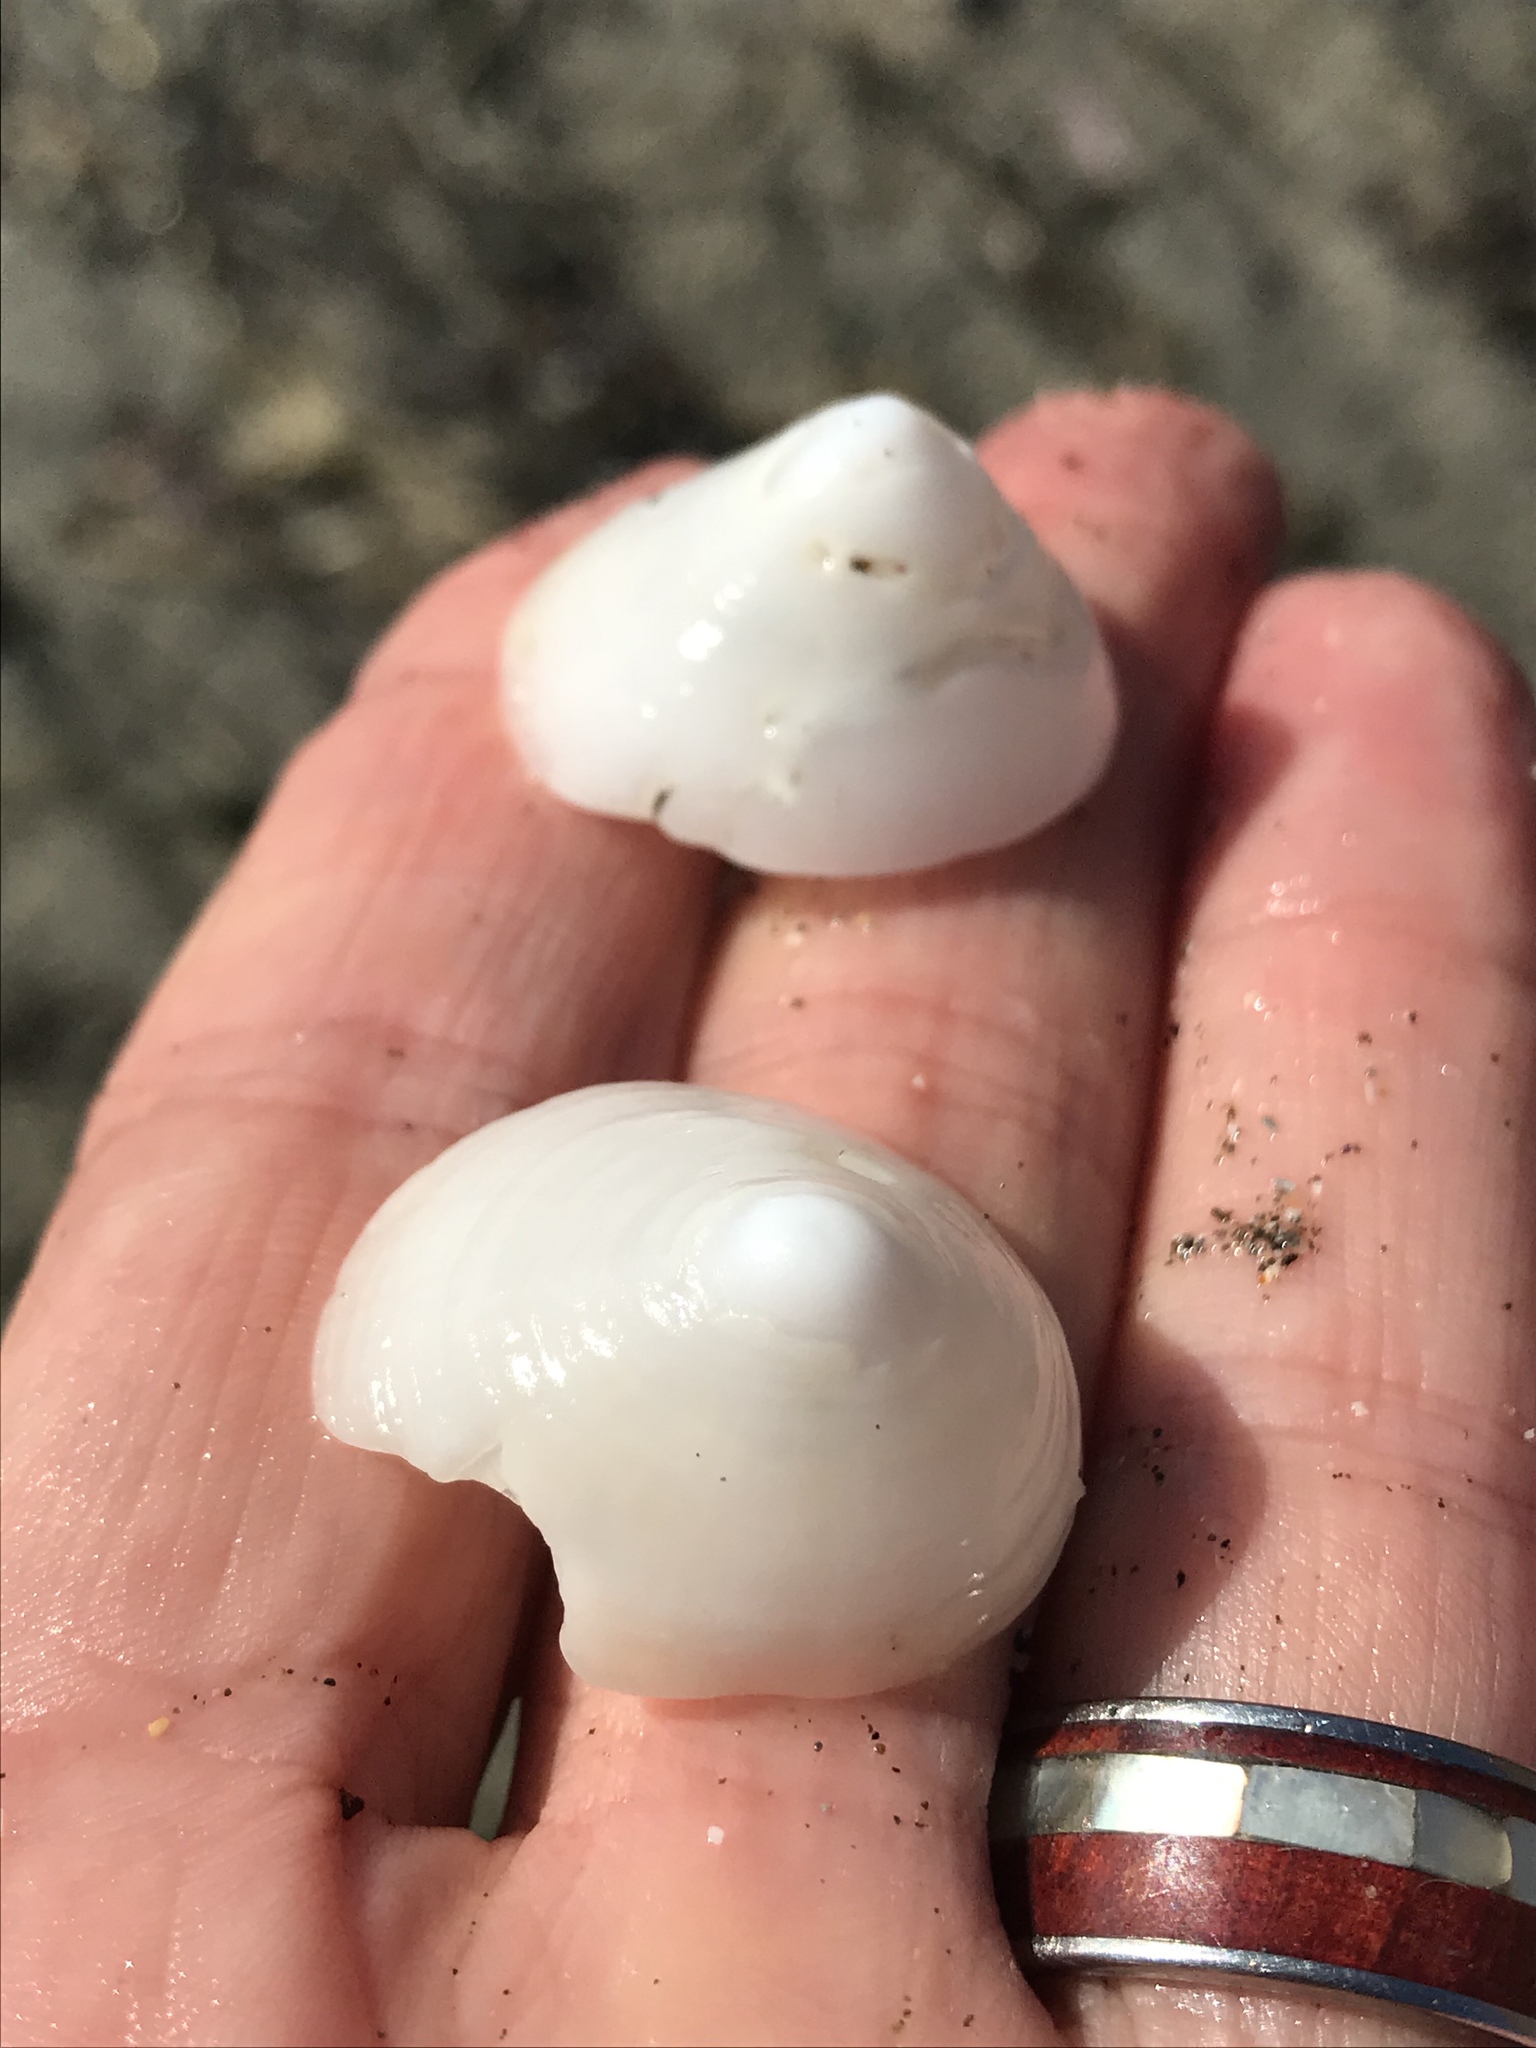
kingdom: Animalia
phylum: Mollusca
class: Gastropoda
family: Acmaeidae
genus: Acmaea
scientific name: Acmaea mitra
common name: Pacific white cap limpet
